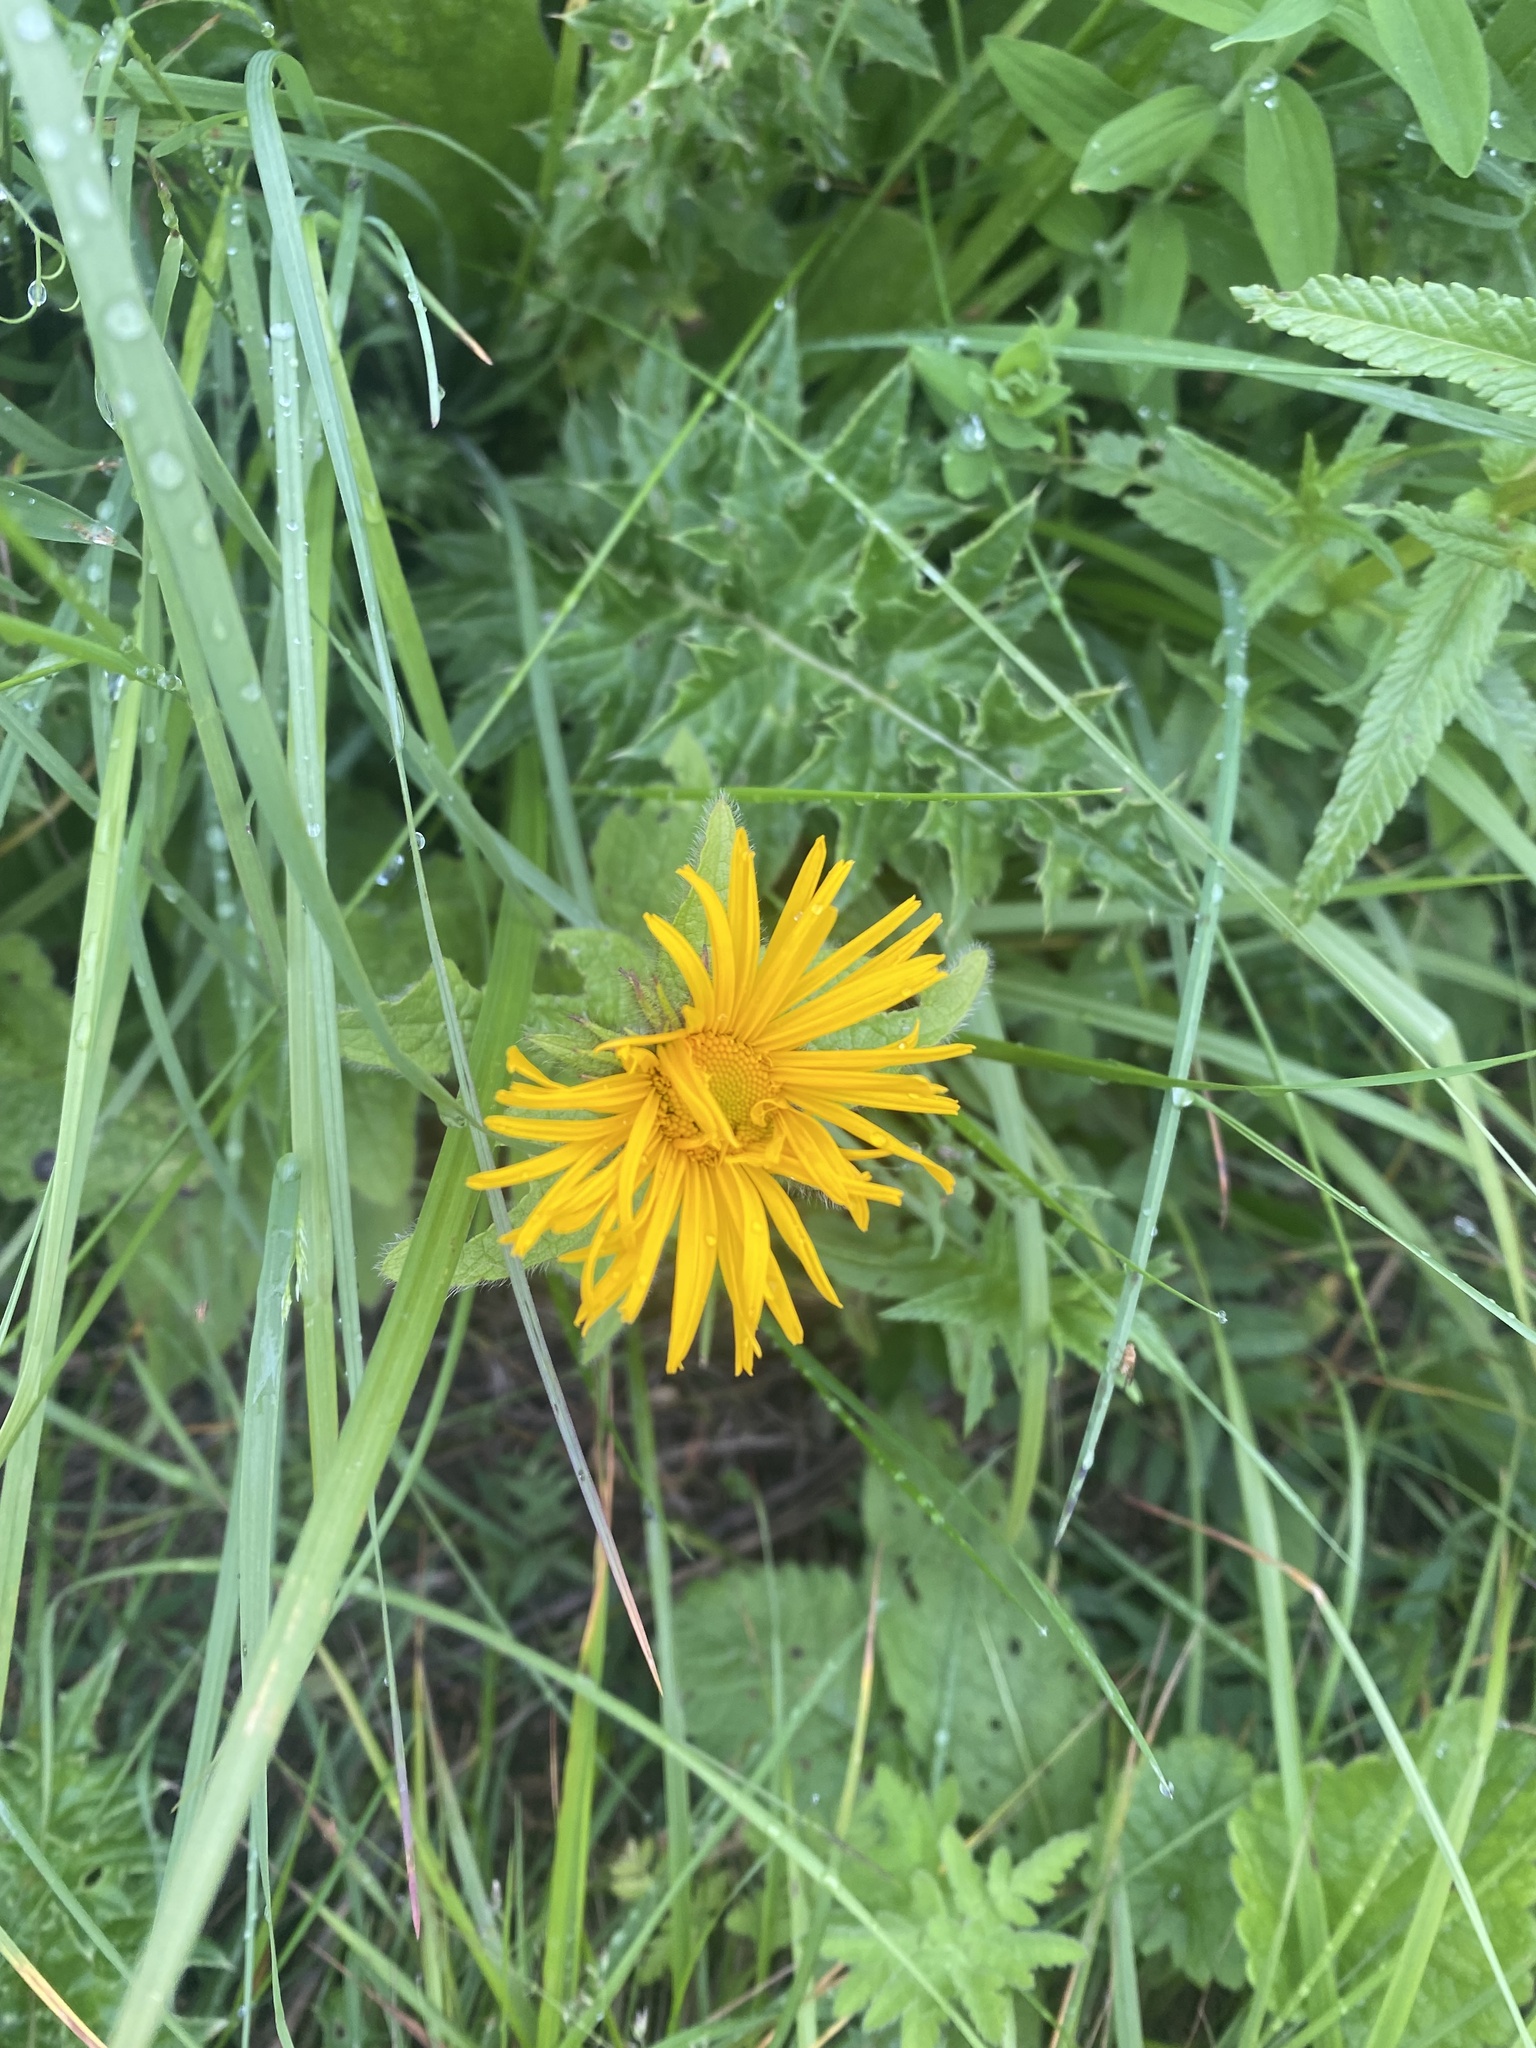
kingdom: Plantae
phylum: Tracheophyta
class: Magnoliopsida
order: Asterales
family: Asteraceae
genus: Pentanema
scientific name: Pentanema orientale
